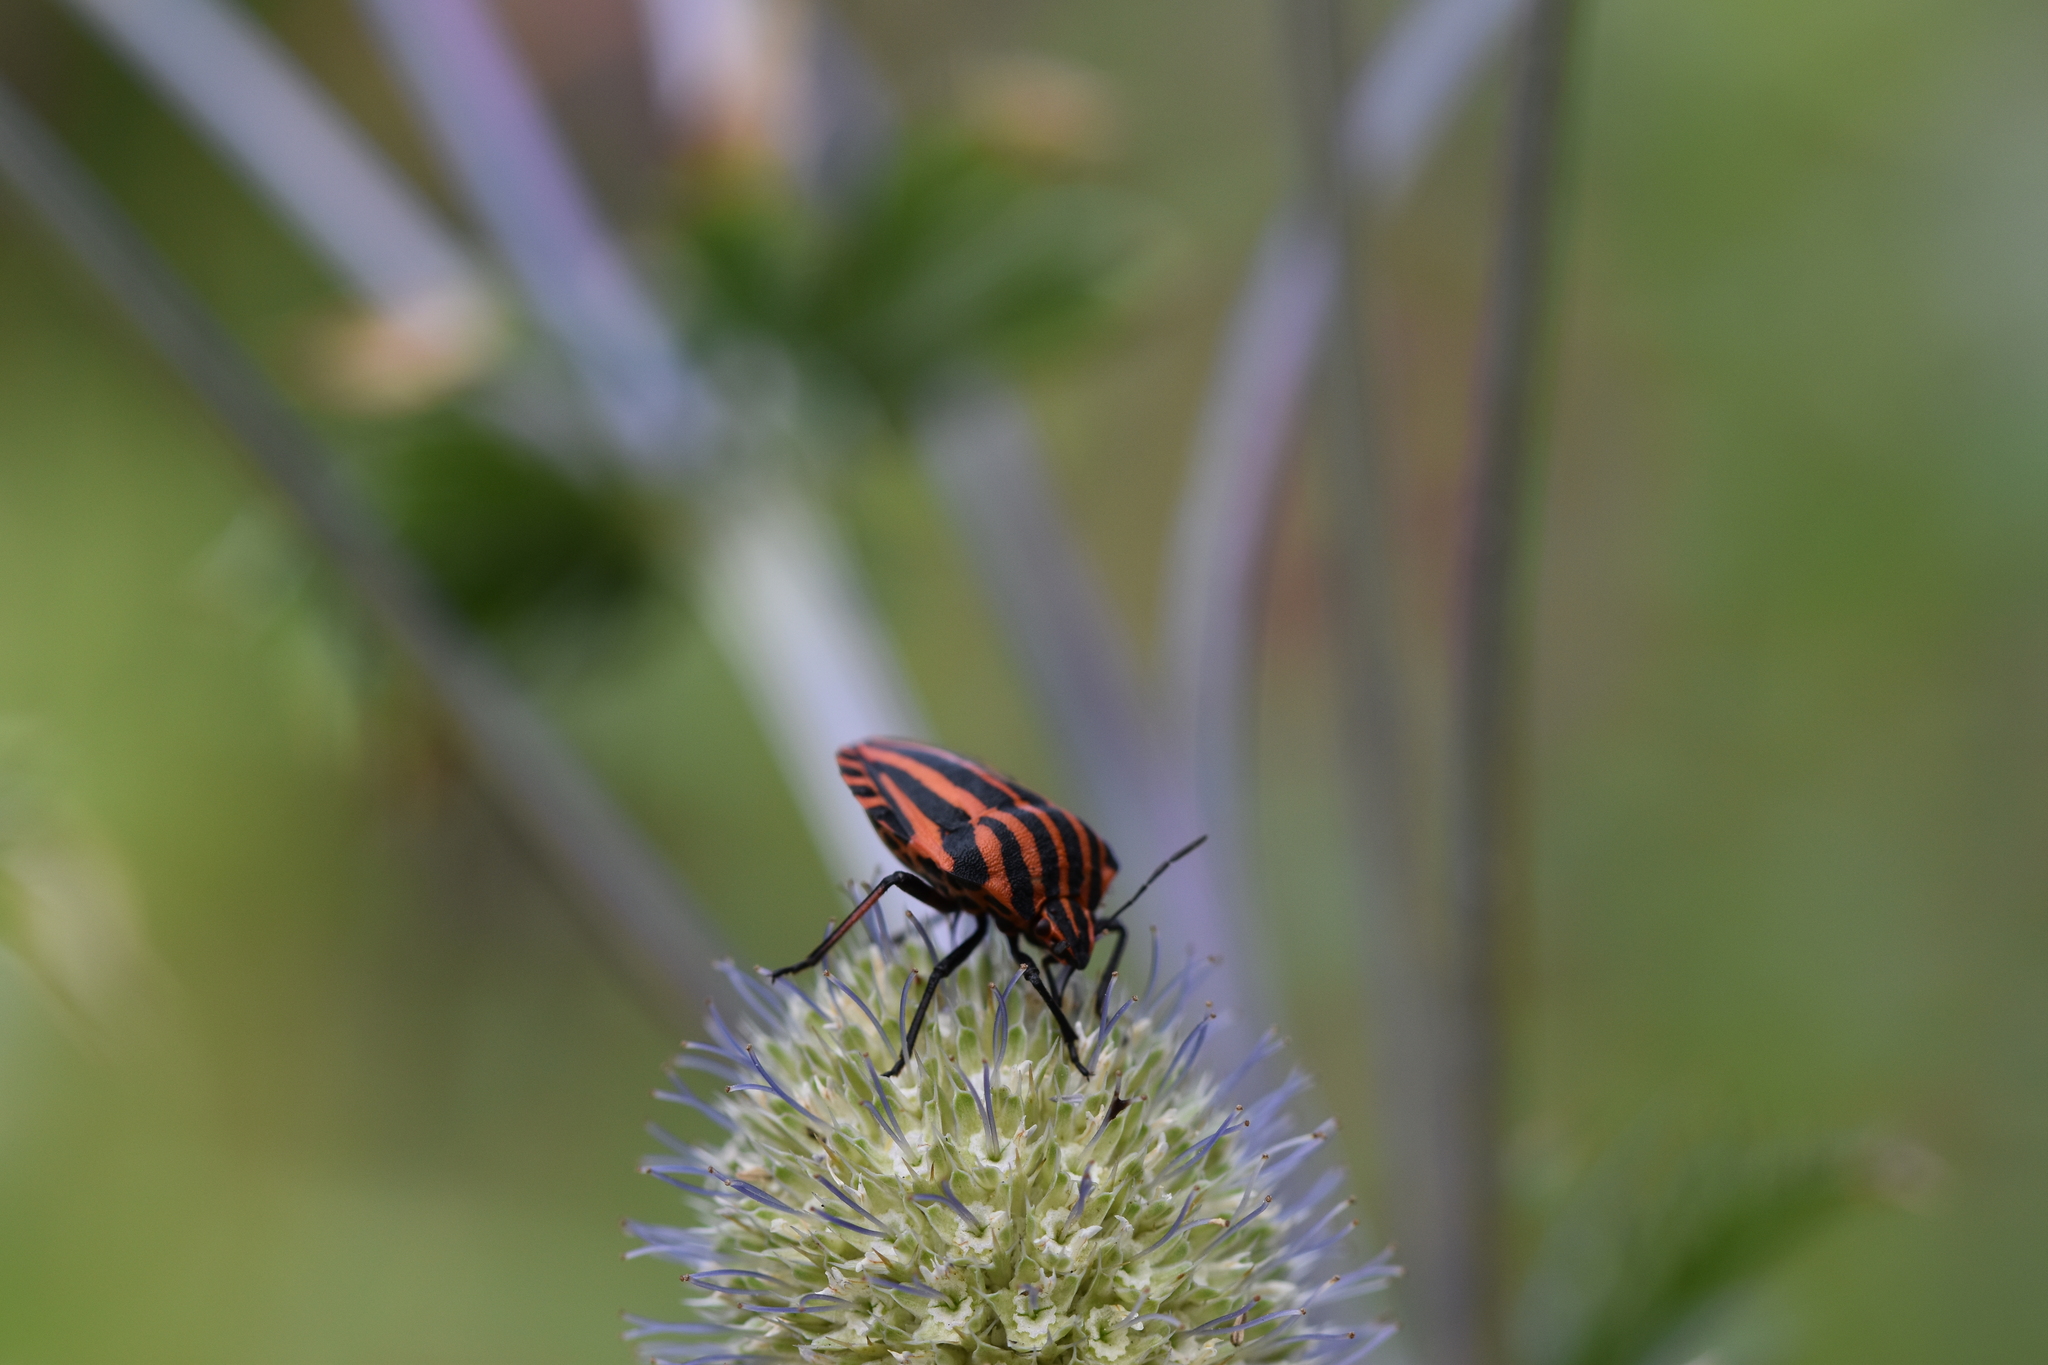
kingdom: Animalia
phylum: Arthropoda
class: Insecta
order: Hemiptera
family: Pentatomidae
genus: Graphosoma
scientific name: Graphosoma italicum
